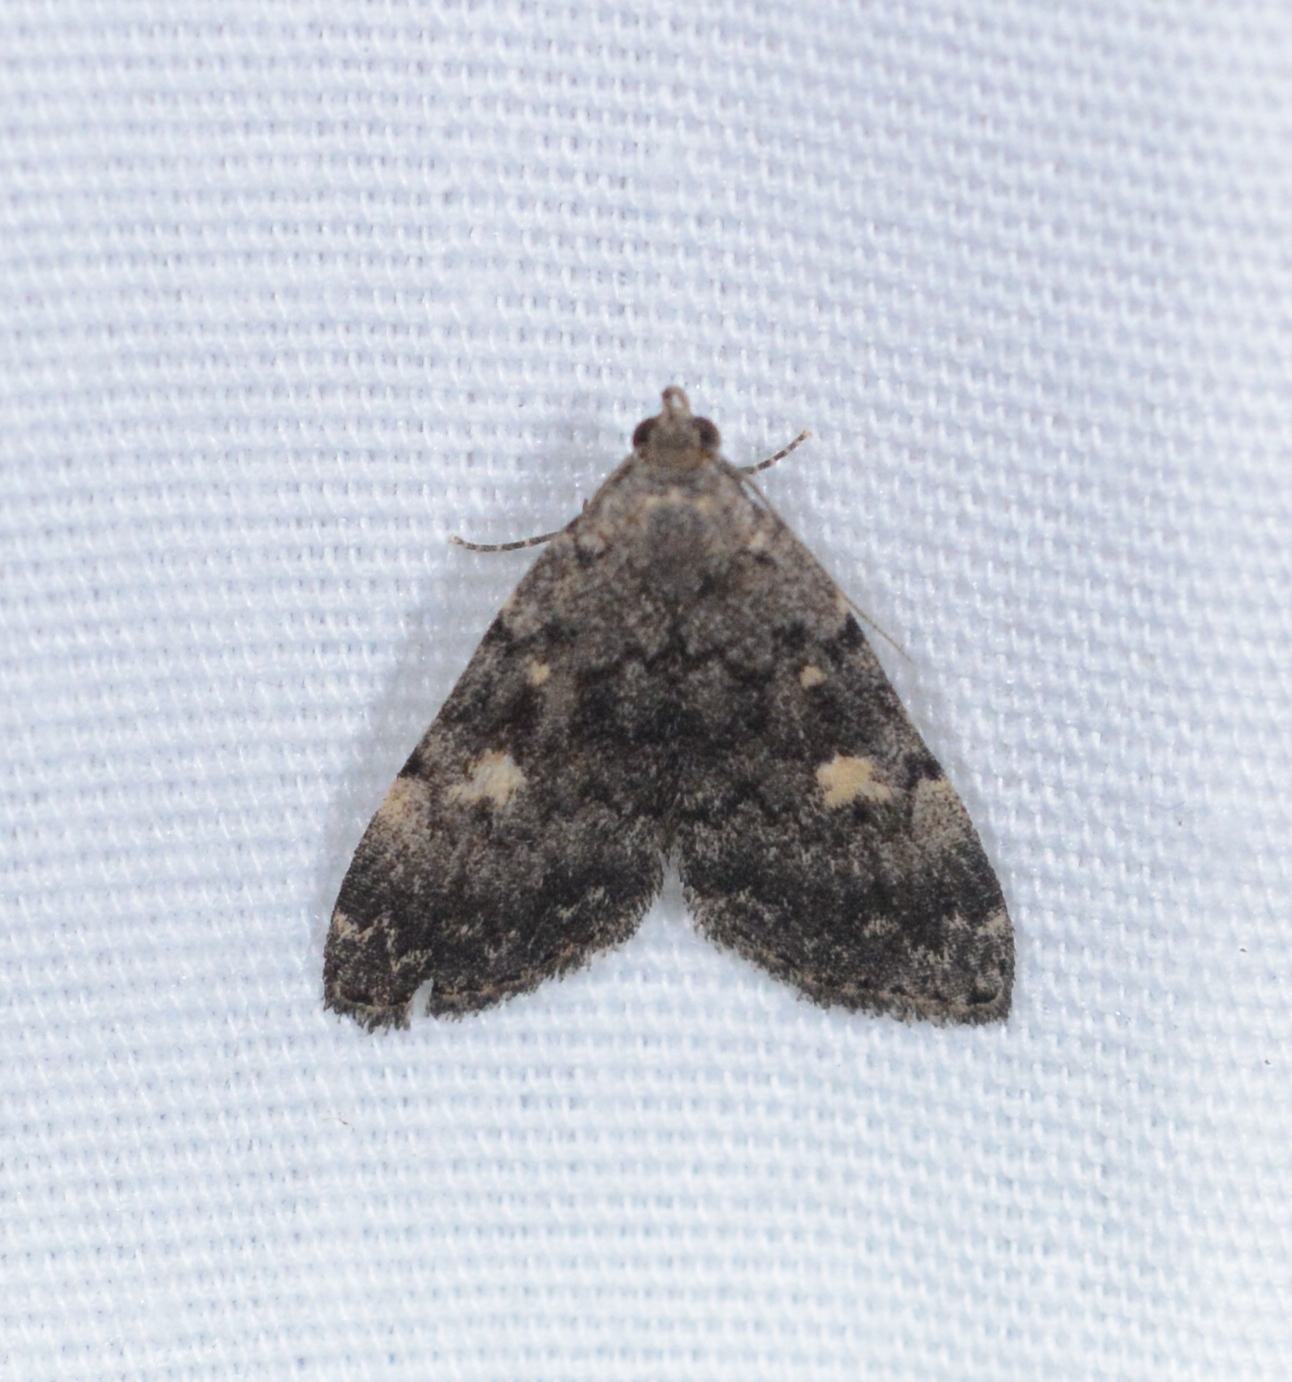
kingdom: Animalia
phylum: Arthropoda
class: Insecta
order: Lepidoptera
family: Erebidae
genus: Idia
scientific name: Idia aemula
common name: Common idia moth
